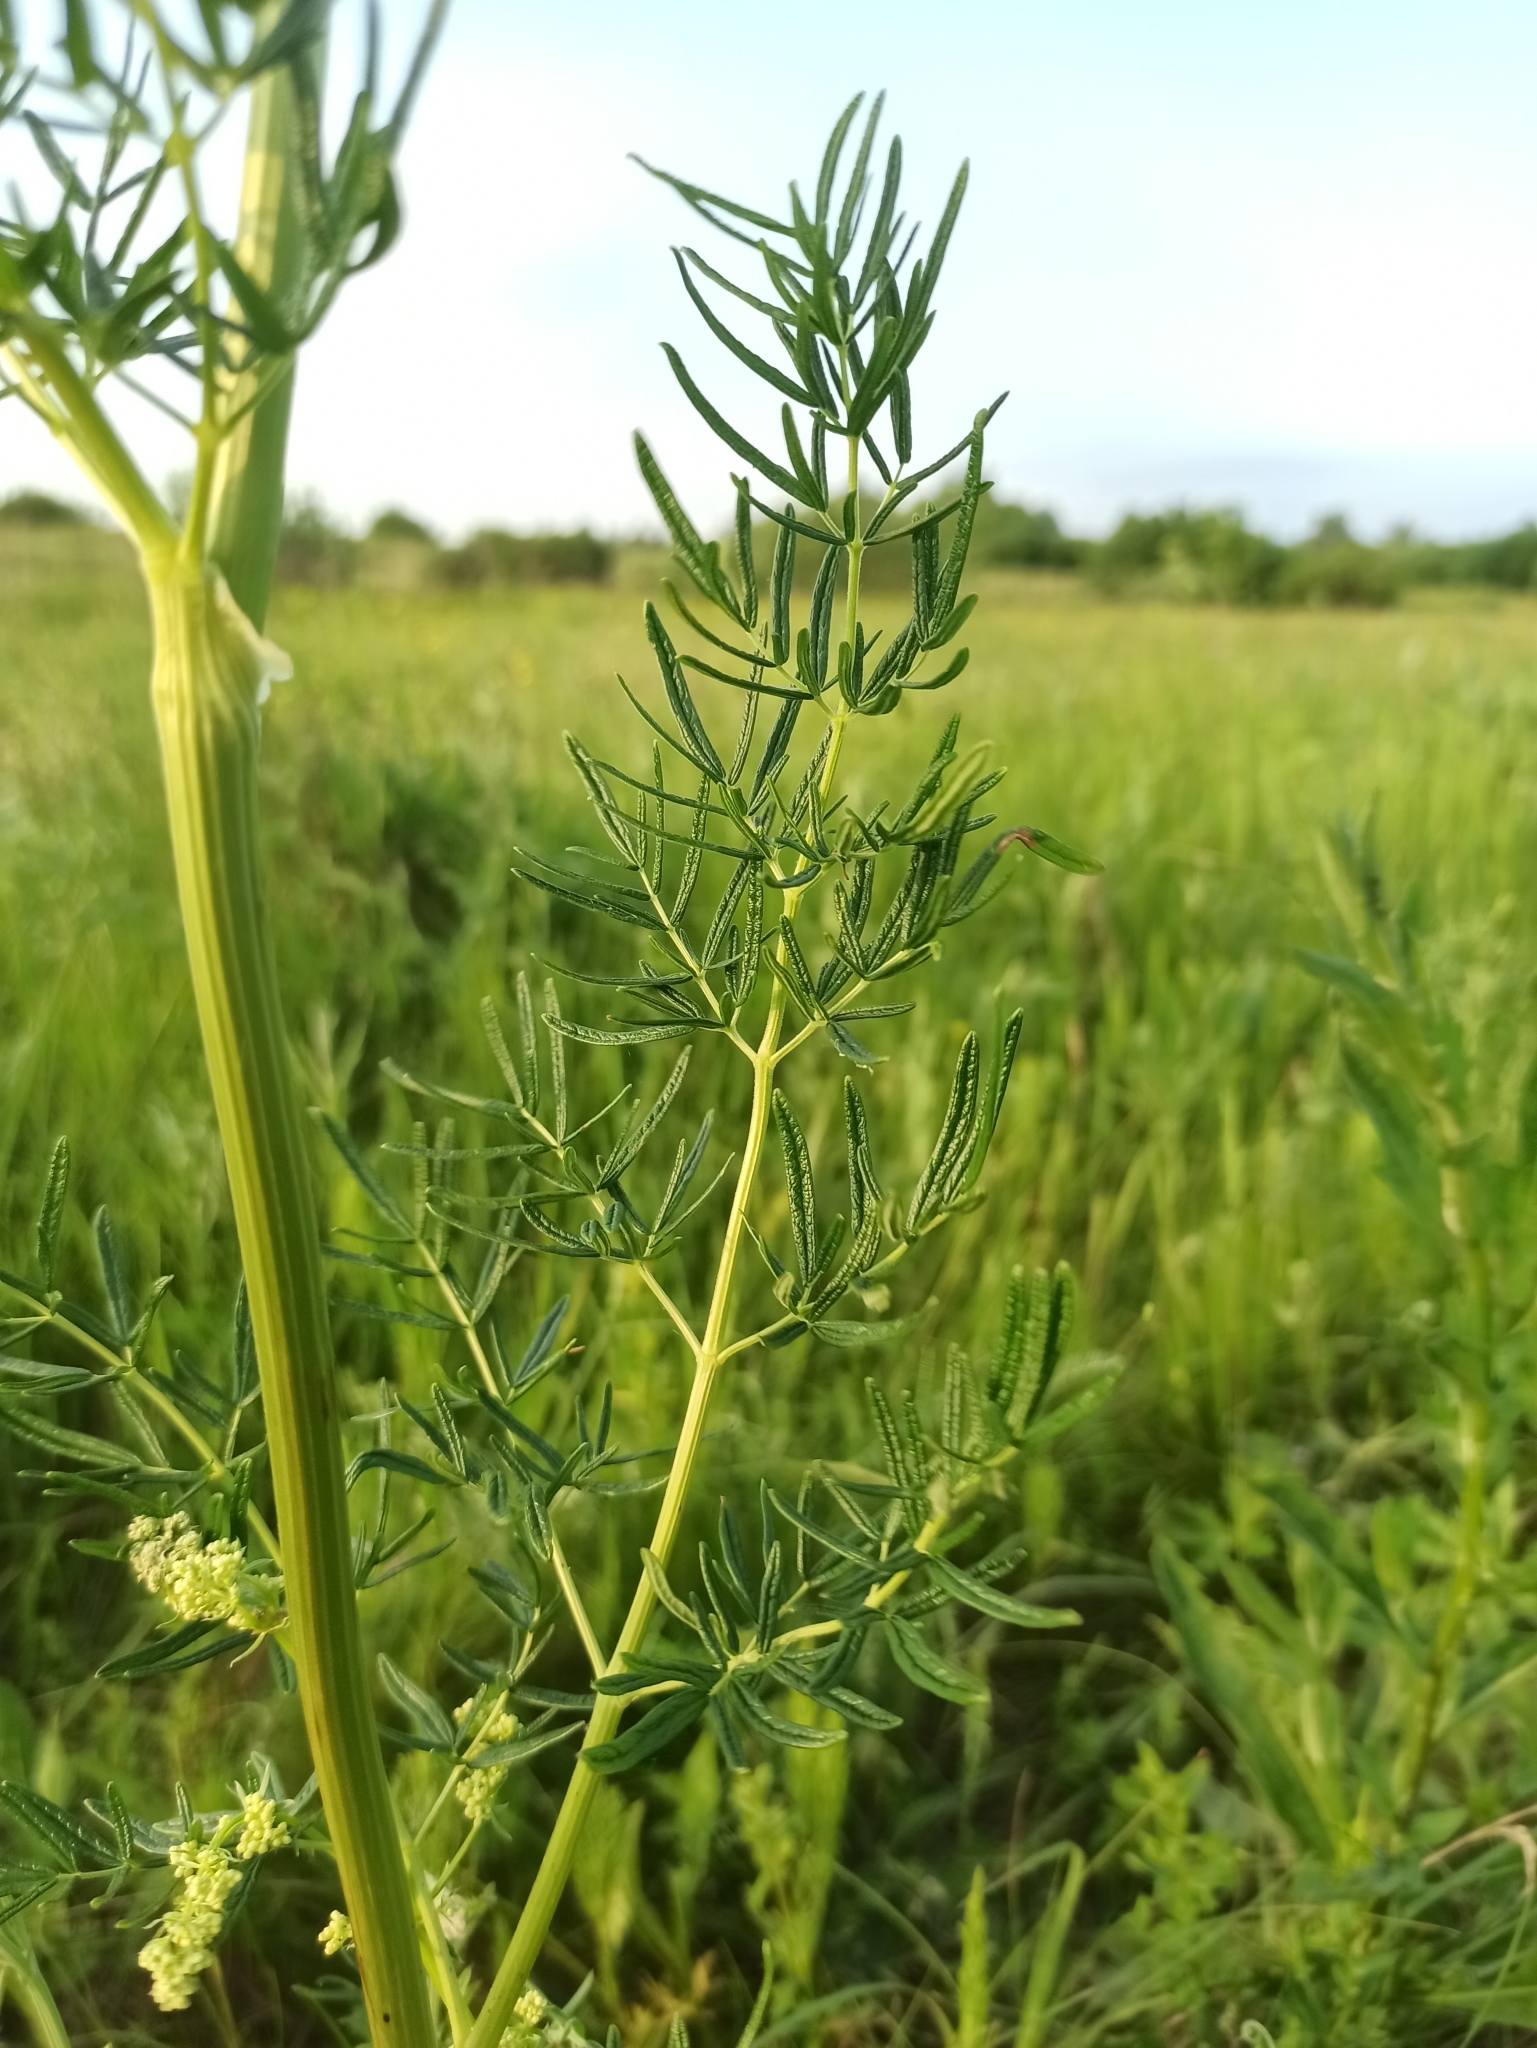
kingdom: Plantae
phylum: Tracheophyta
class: Magnoliopsida
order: Ranunculales
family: Ranunculaceae
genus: Thalictrum
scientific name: Thalictrum lucidum
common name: Shining meadow-rue
